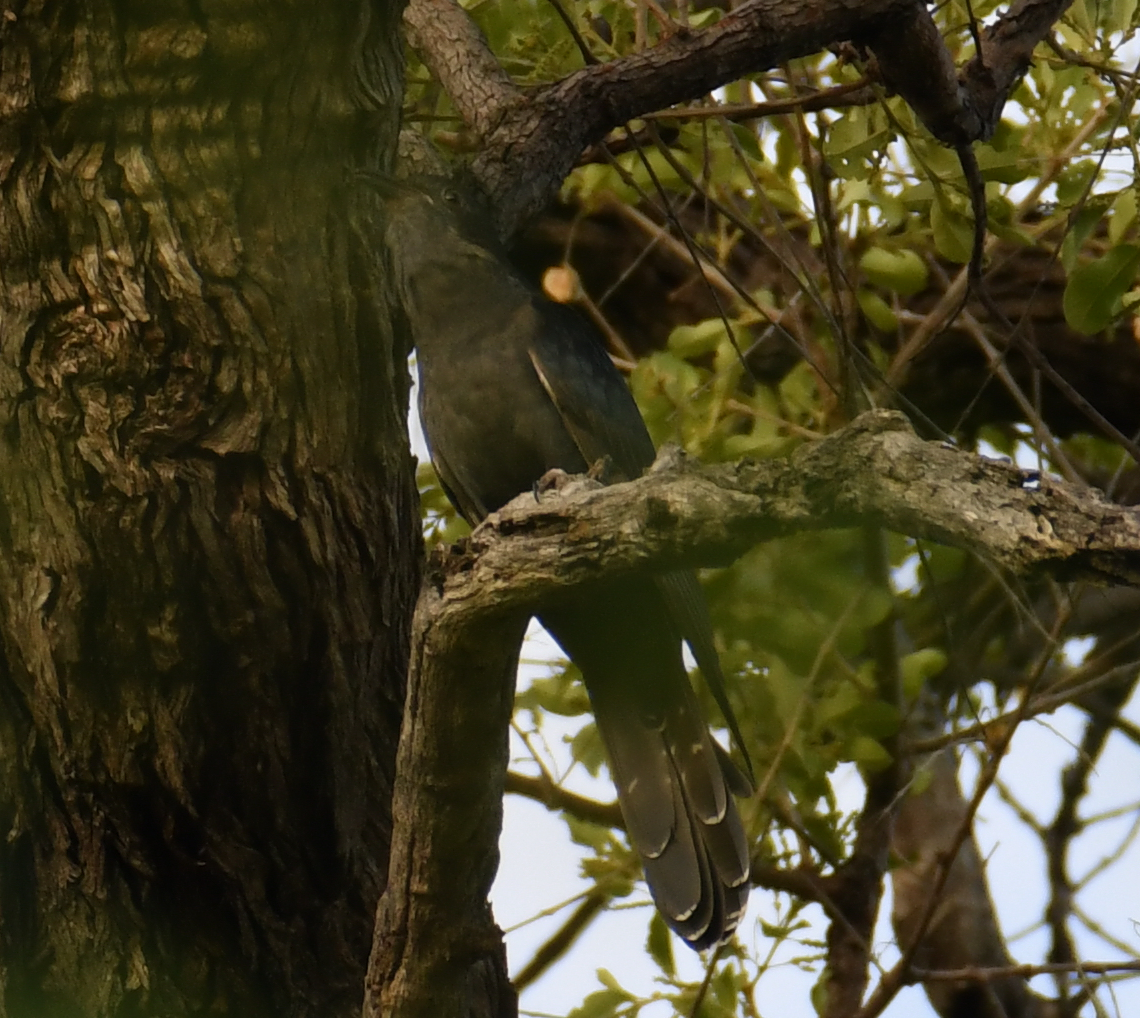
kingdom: Animalia
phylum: Chordata
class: Aves
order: Cuculiformes
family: Cuculidae
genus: Cuculus
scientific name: Cuculus clamosus
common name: Black cuckoo
